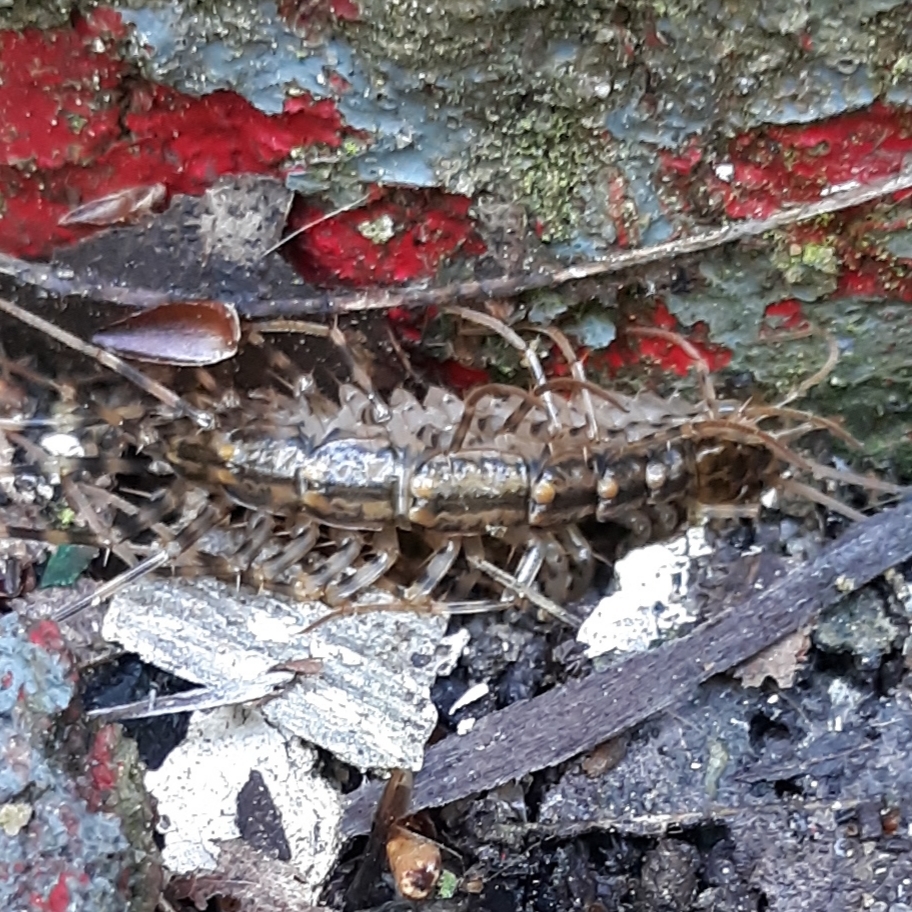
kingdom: Animalia
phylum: Arthropoda
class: Chilopoda
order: Scutigeromorpha
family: Scutigeridae
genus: Scutigera
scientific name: Scutigera coleoptrata
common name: House centipede
